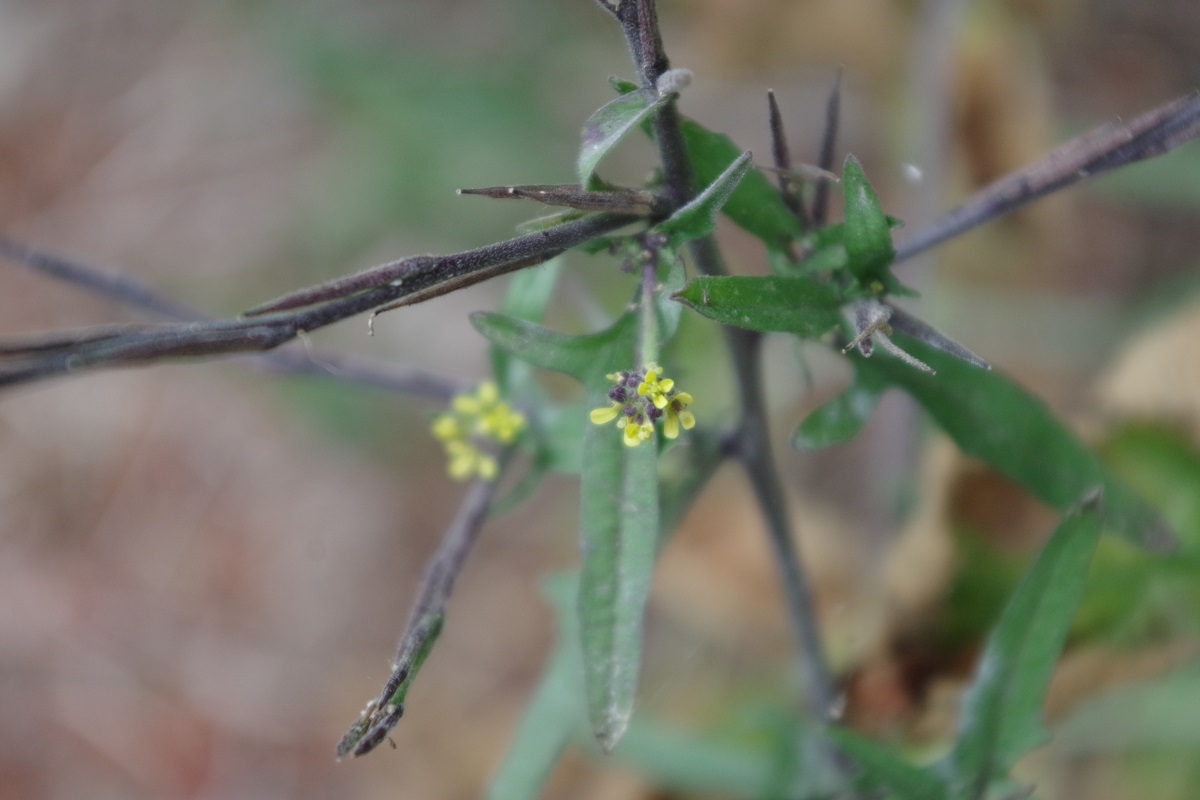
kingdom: Plantae
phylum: Tracheophyta
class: Magnoliopsida
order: Brassicales
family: Brassicaceae
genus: Sisymbrium
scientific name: Sisymbrium officinale
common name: Hedge mustard
